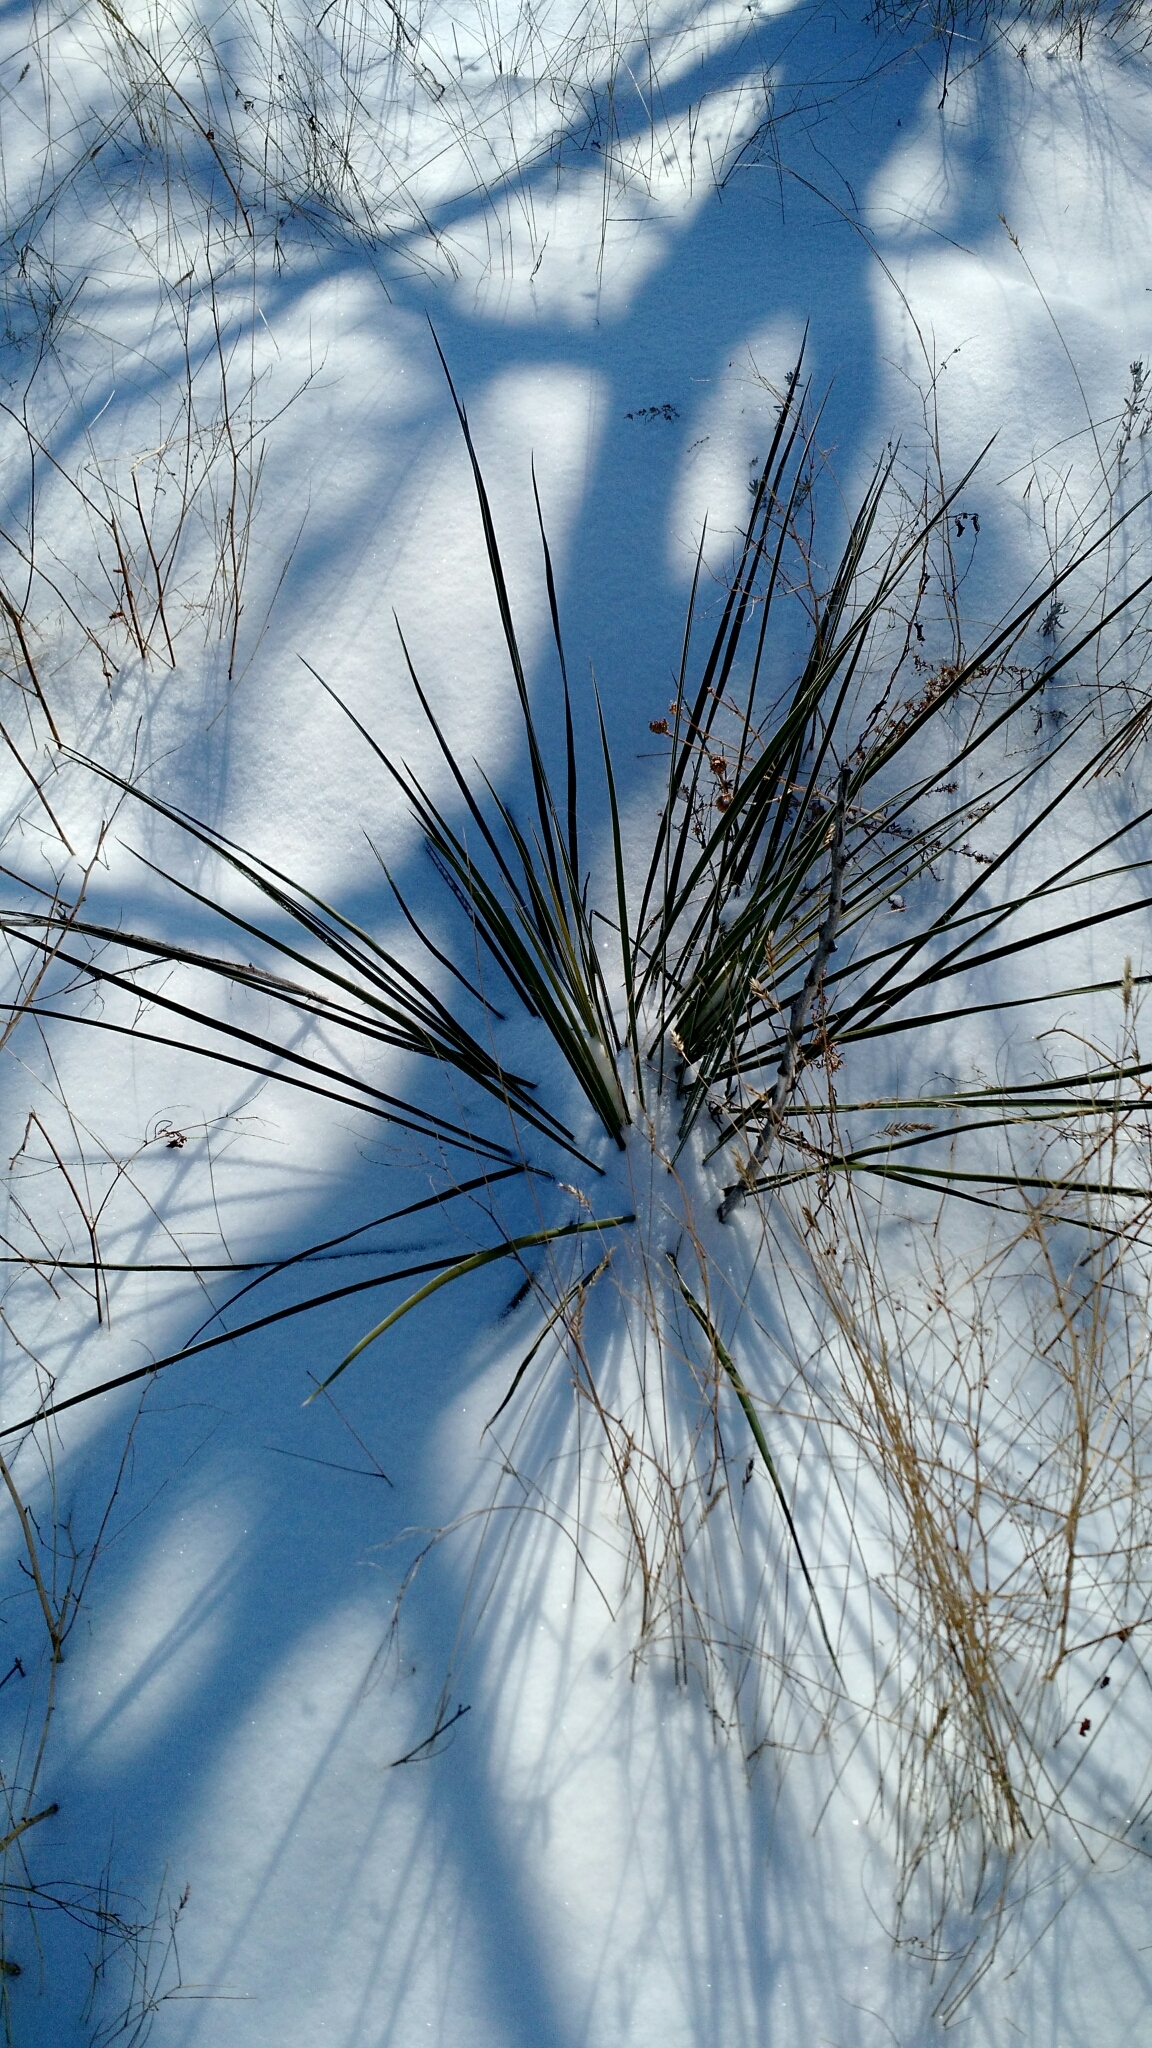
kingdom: Plantae
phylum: Tracheophyta
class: Liliopsida
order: Asparagales
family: Asparagaceae
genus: Yucca
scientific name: Yucca glauca
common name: Great plains yucca
